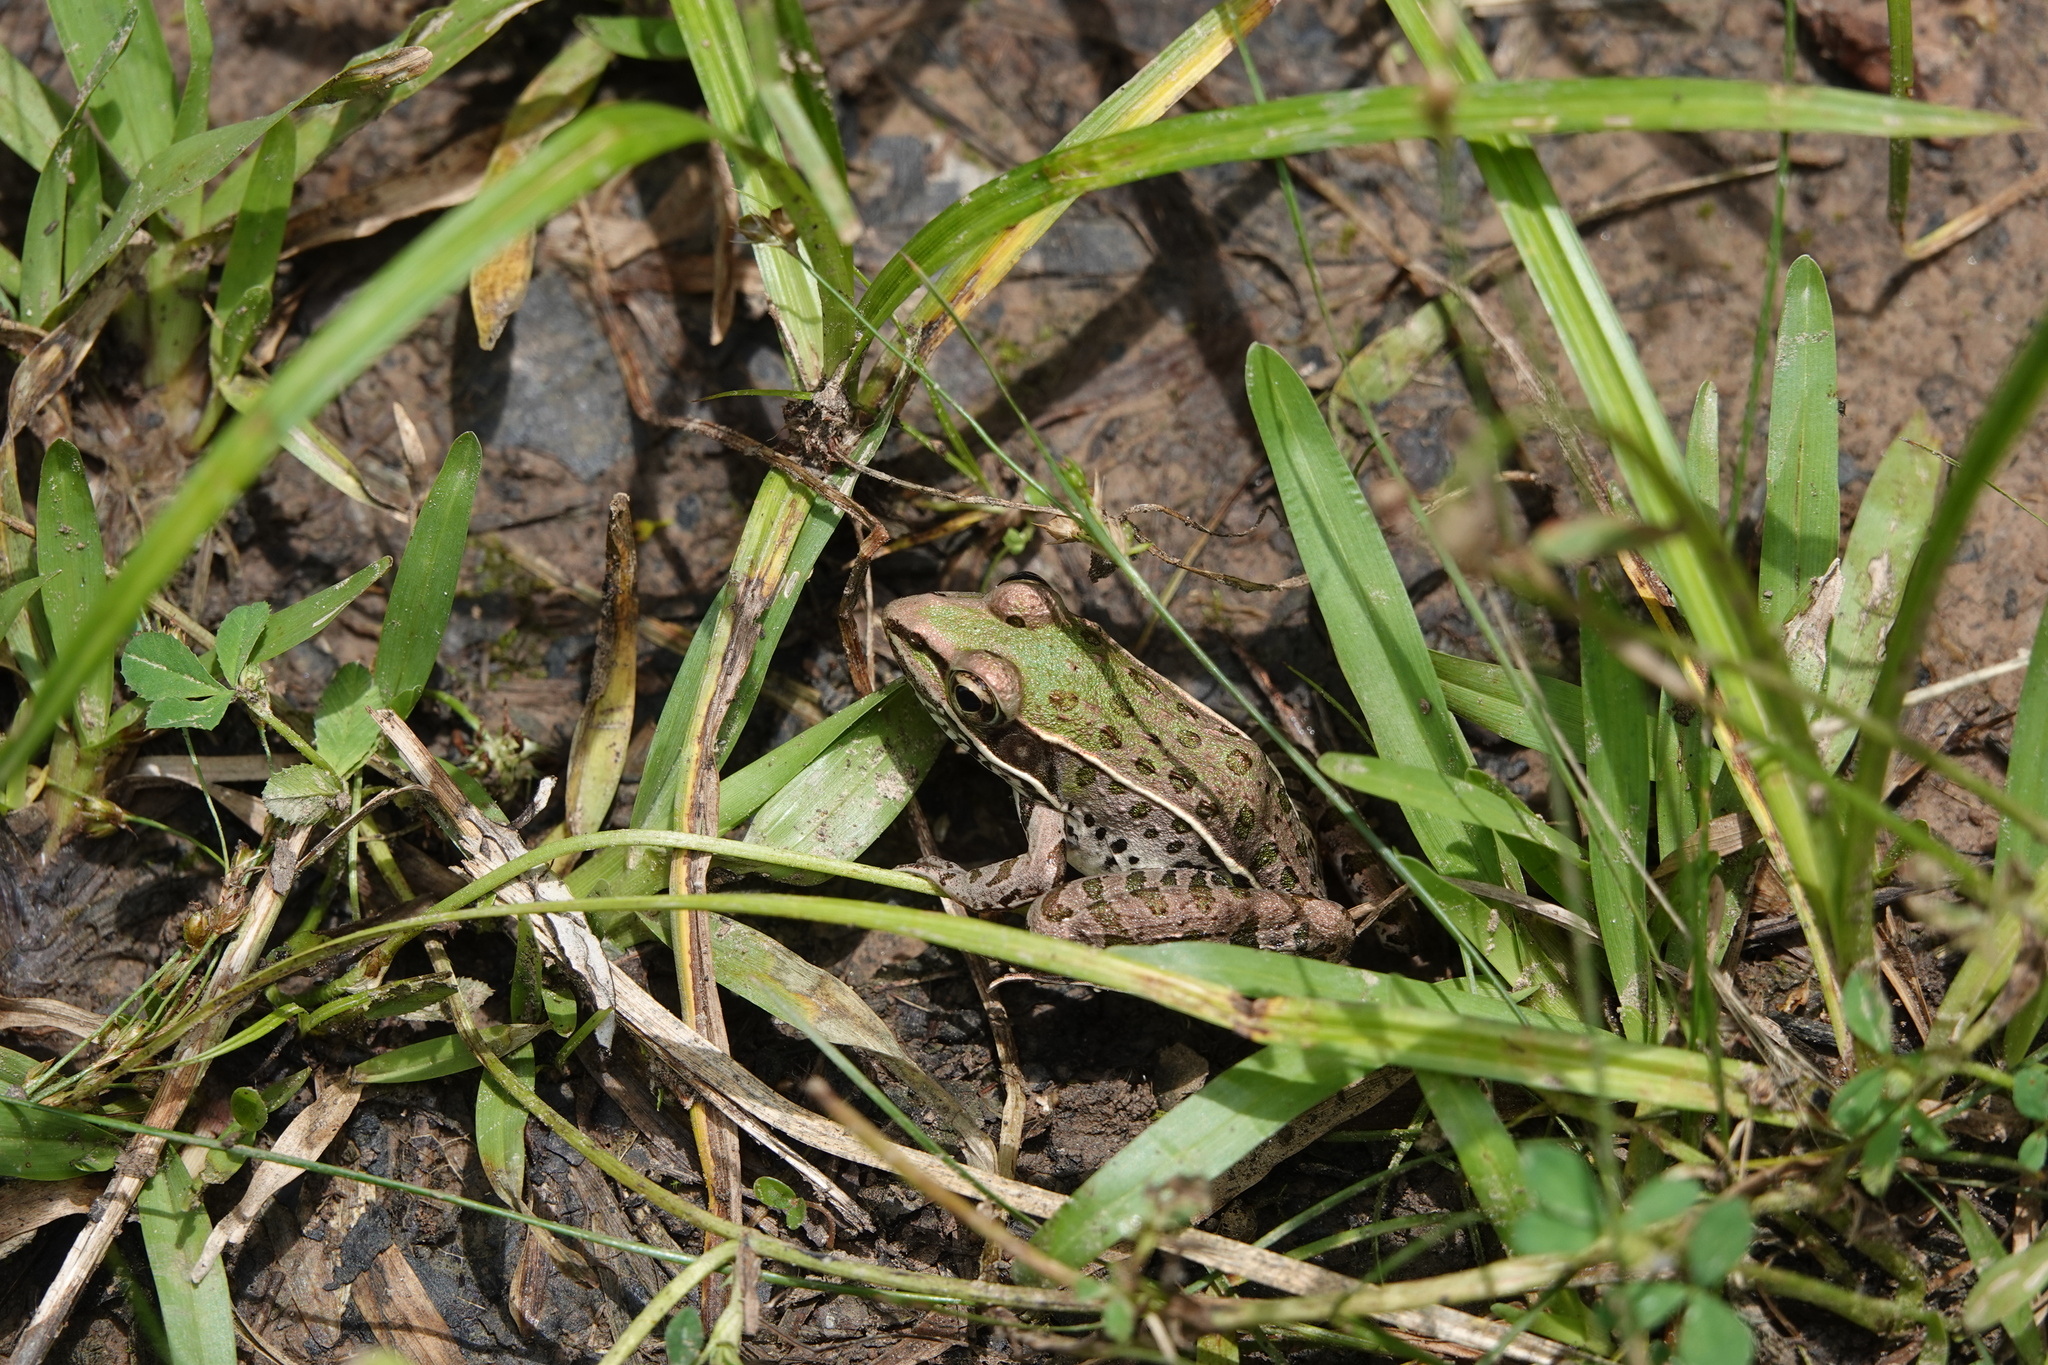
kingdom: Animalia
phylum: Chordata
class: Amphibia
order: Anura
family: Ranidae
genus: Lithobates
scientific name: Lithobates sphenocephalus
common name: Southern leopard frog
